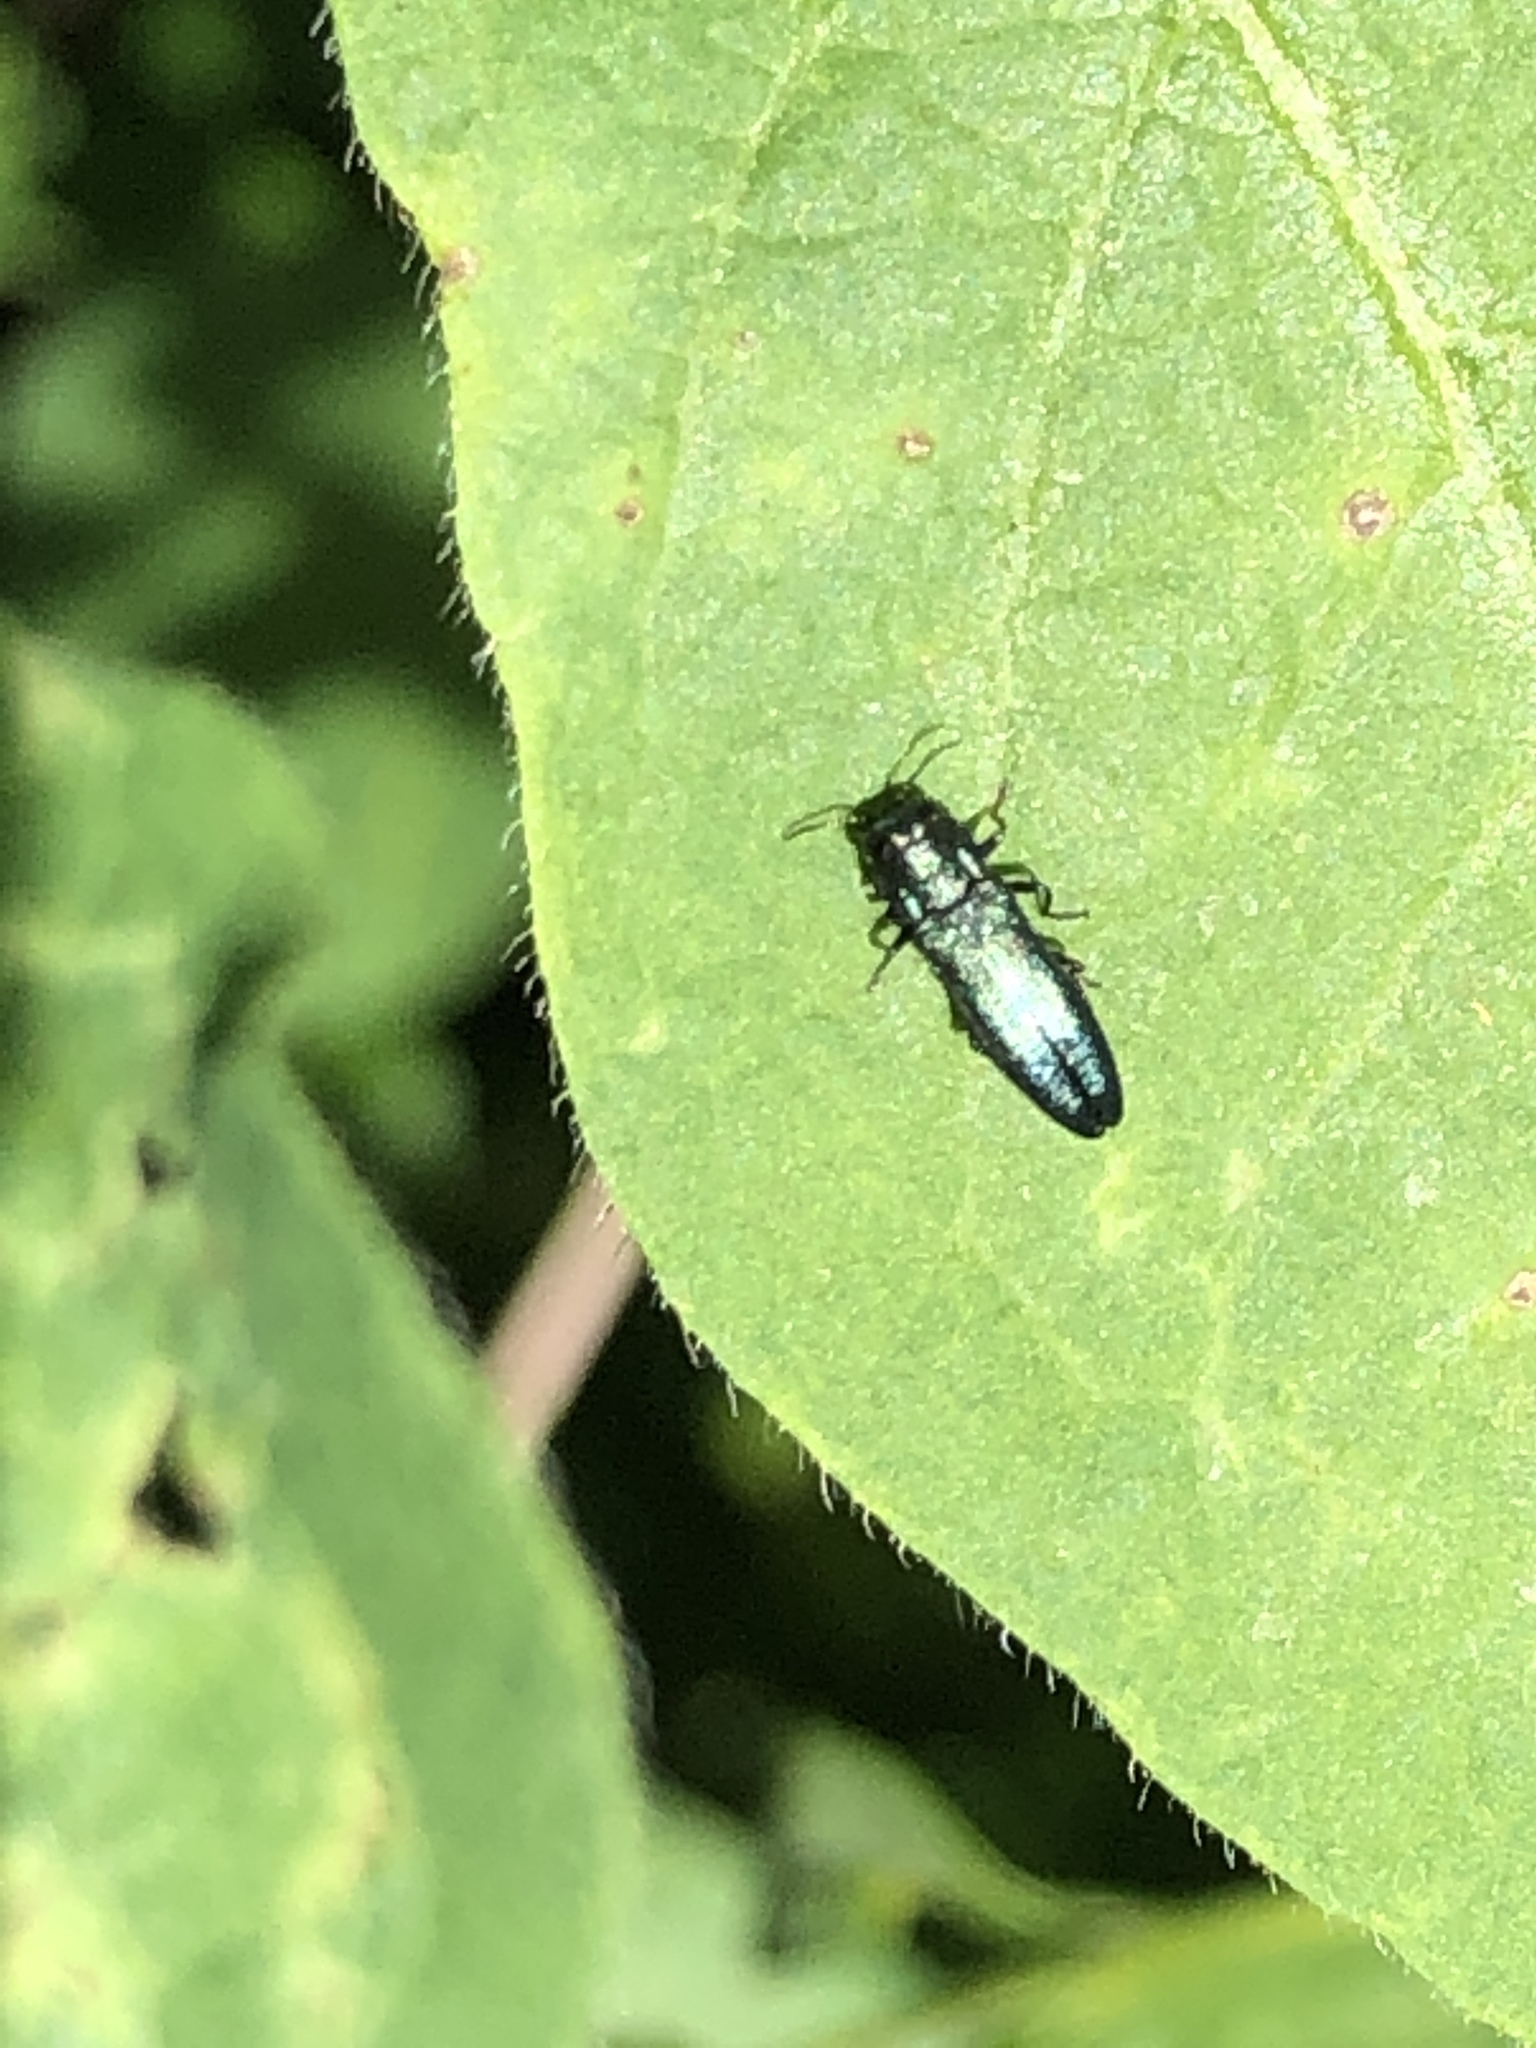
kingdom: Animalia
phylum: Arthropoda
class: Insecta
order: Coleoptera
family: Buprestidae
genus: Agrilus
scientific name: Agrilus cyanescens
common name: Bluish borer beetle
